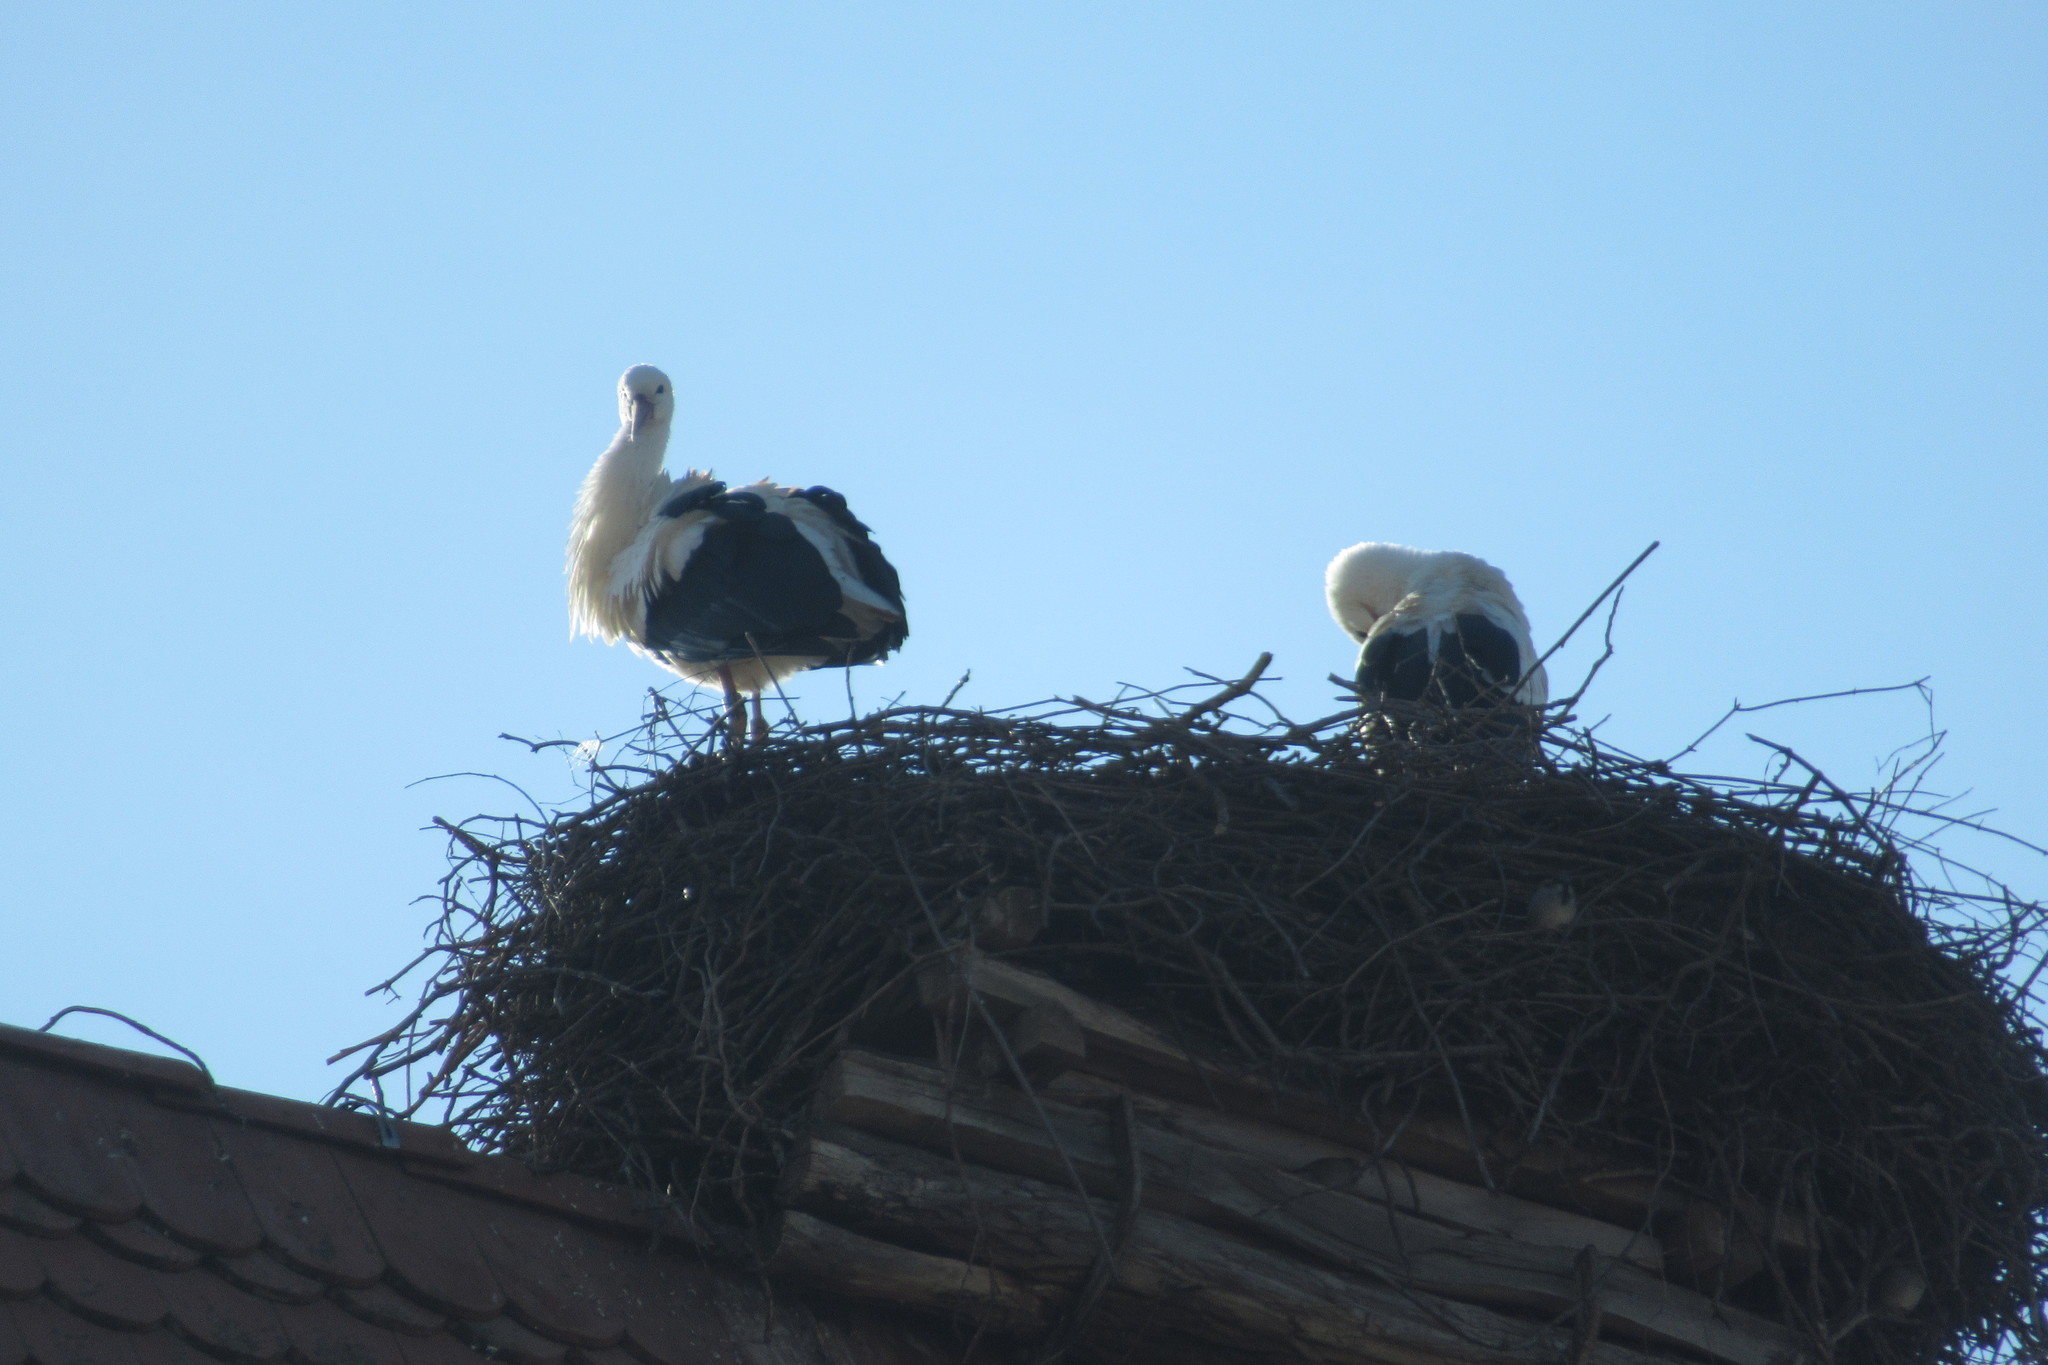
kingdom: Animalia
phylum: Chordata
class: Aves
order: Ciconiiformes
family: Ciconiidae
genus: Ciconia
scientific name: Ciconia ciconia
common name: White stork
